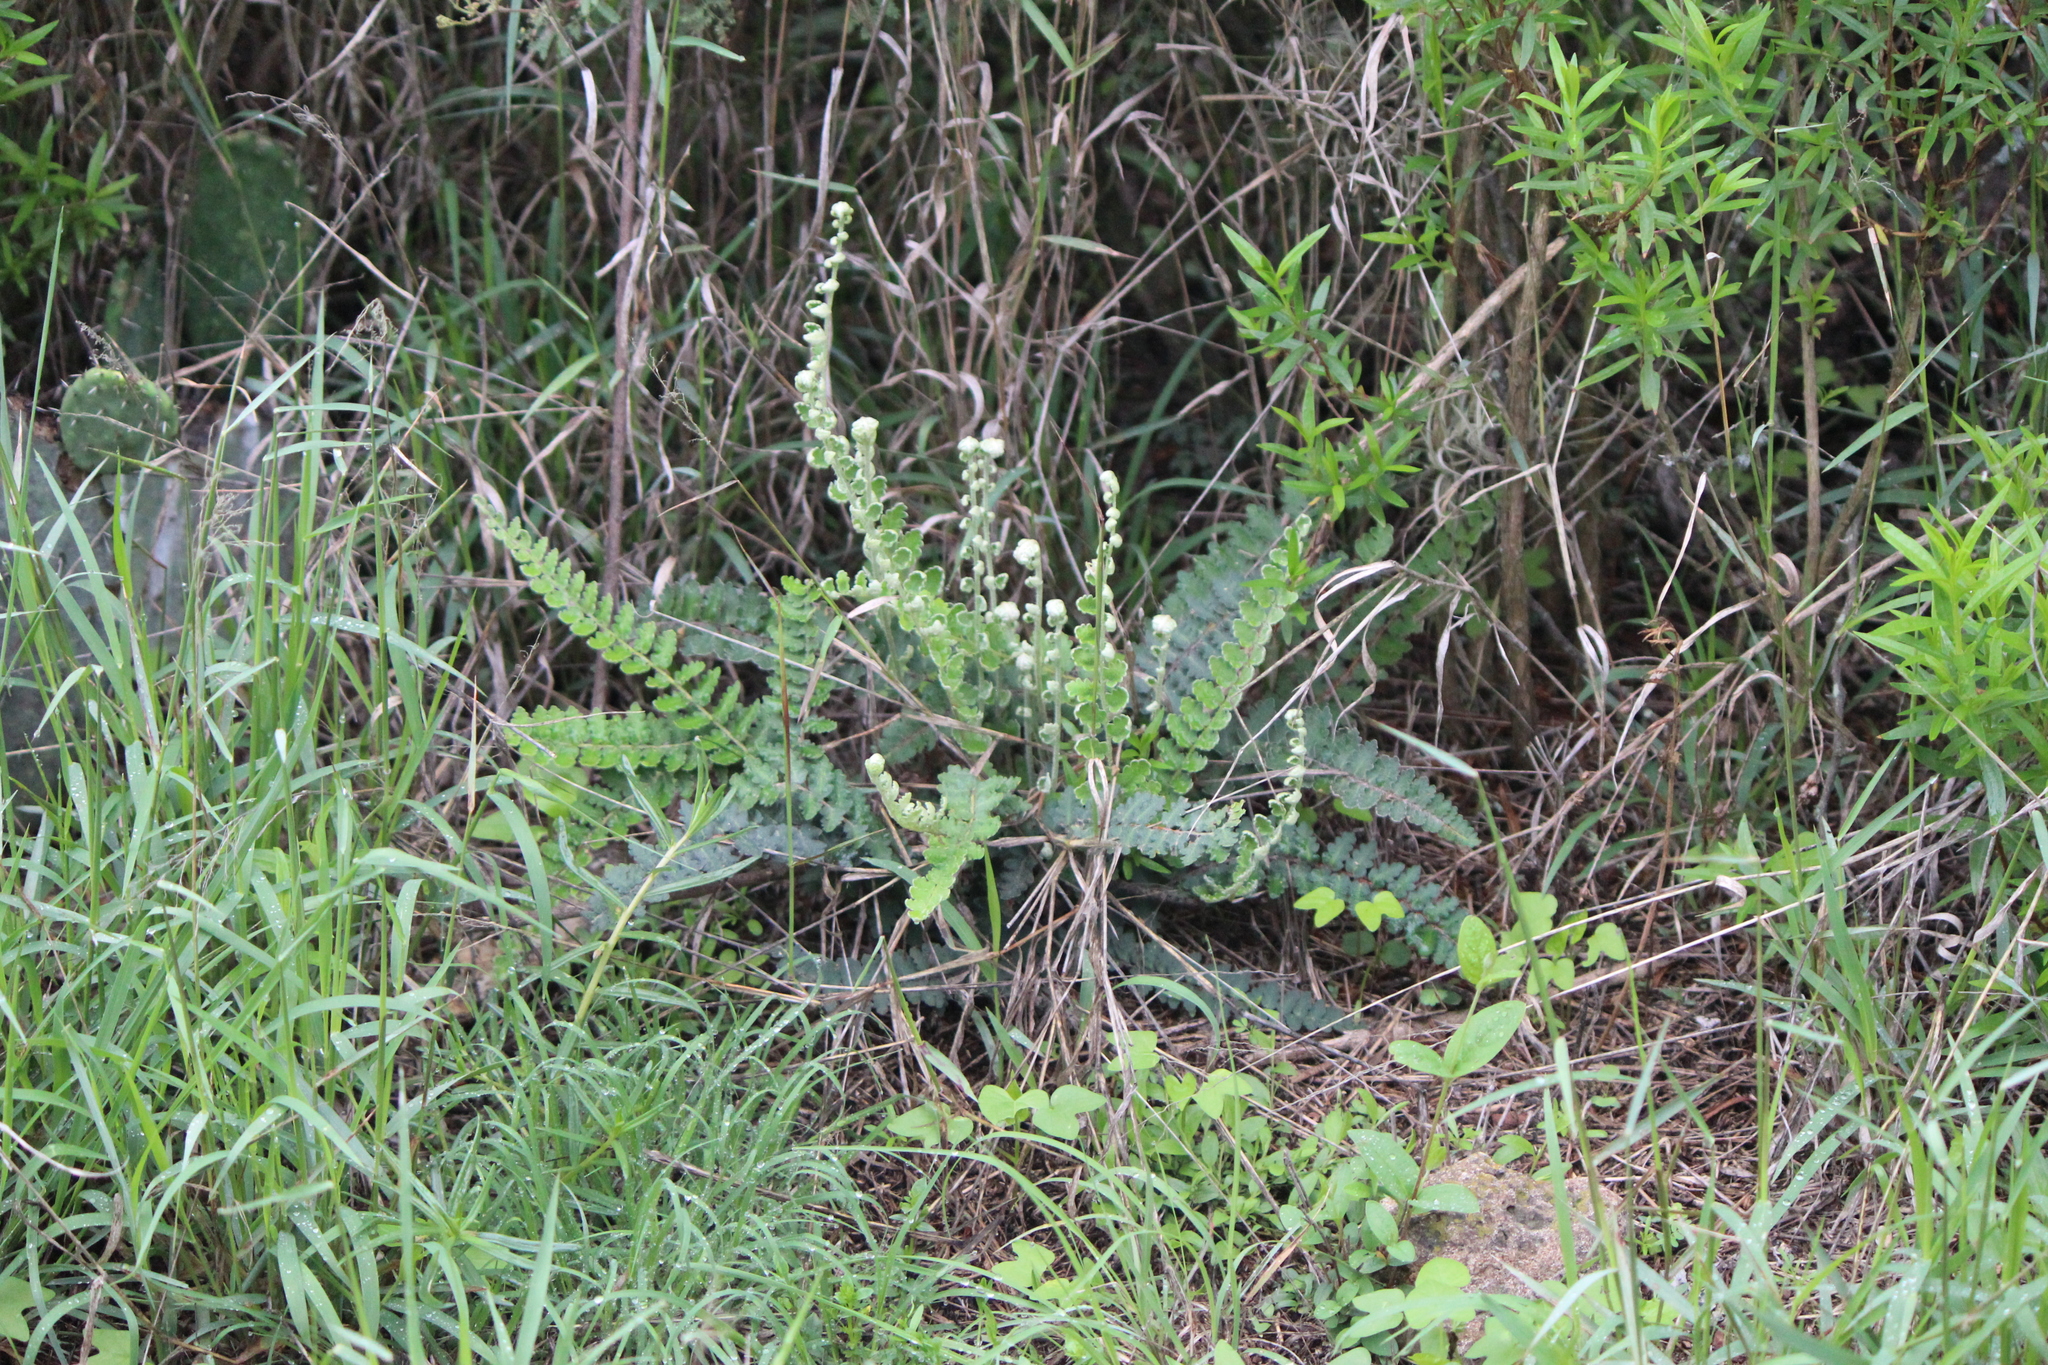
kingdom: Plantae
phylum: Tracheophyta
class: Polypodiopsida
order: Polypodiales
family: Pteridaceae
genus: Astrolepis
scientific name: Astrolepis sinuata
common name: Wavy scaly cloakfern
